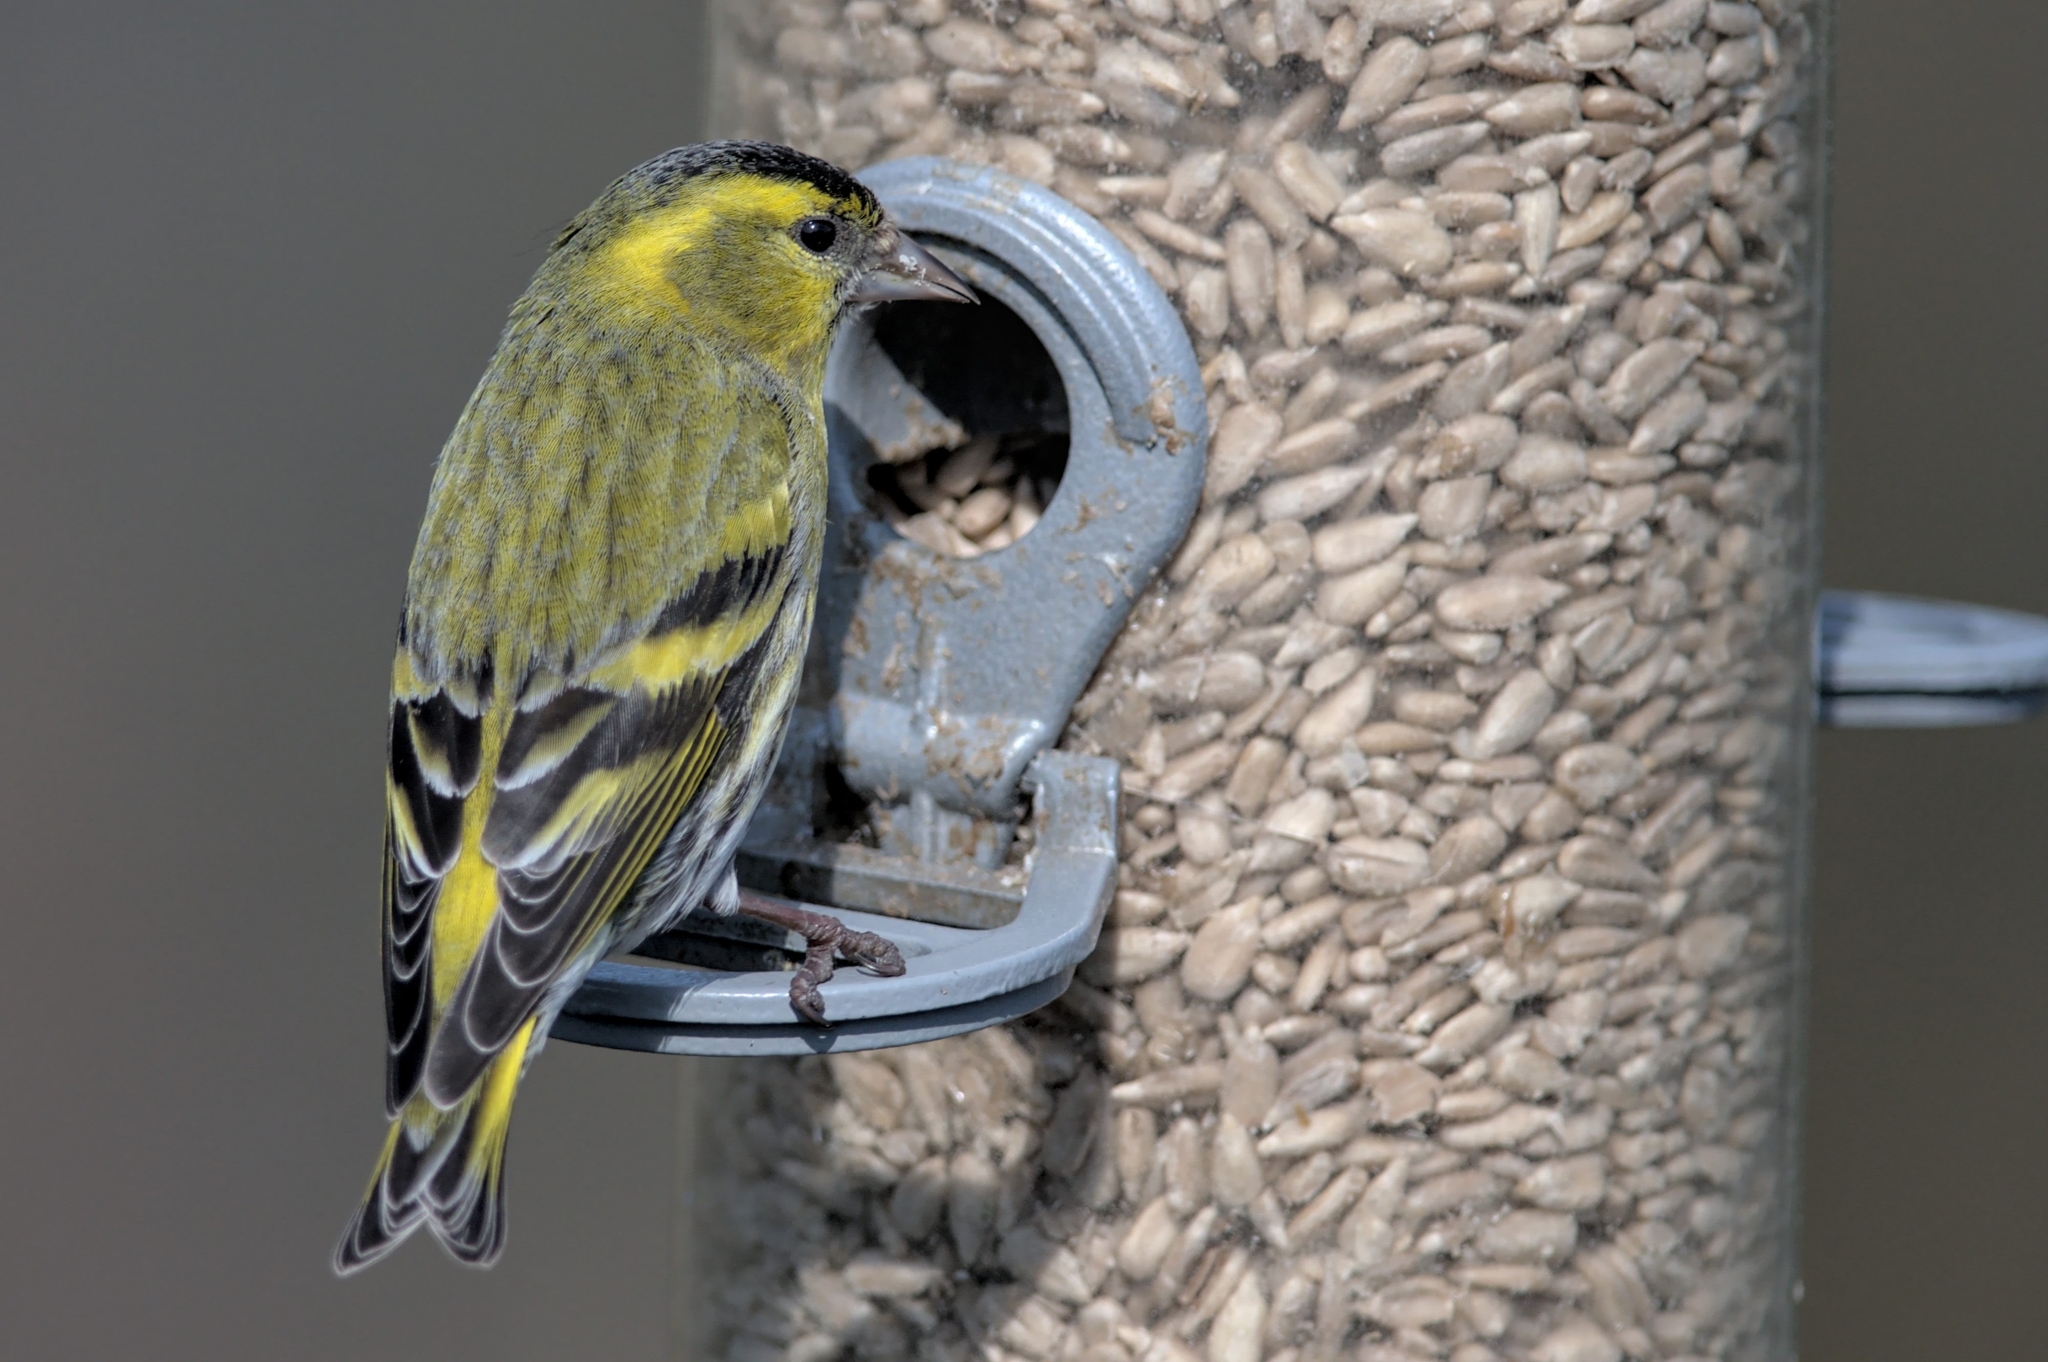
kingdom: Animalia
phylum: Chordata
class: Aves
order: Passeriformes
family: Fringillidae
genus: Spinus
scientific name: Spinus spinus
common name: Eurasian siskin
